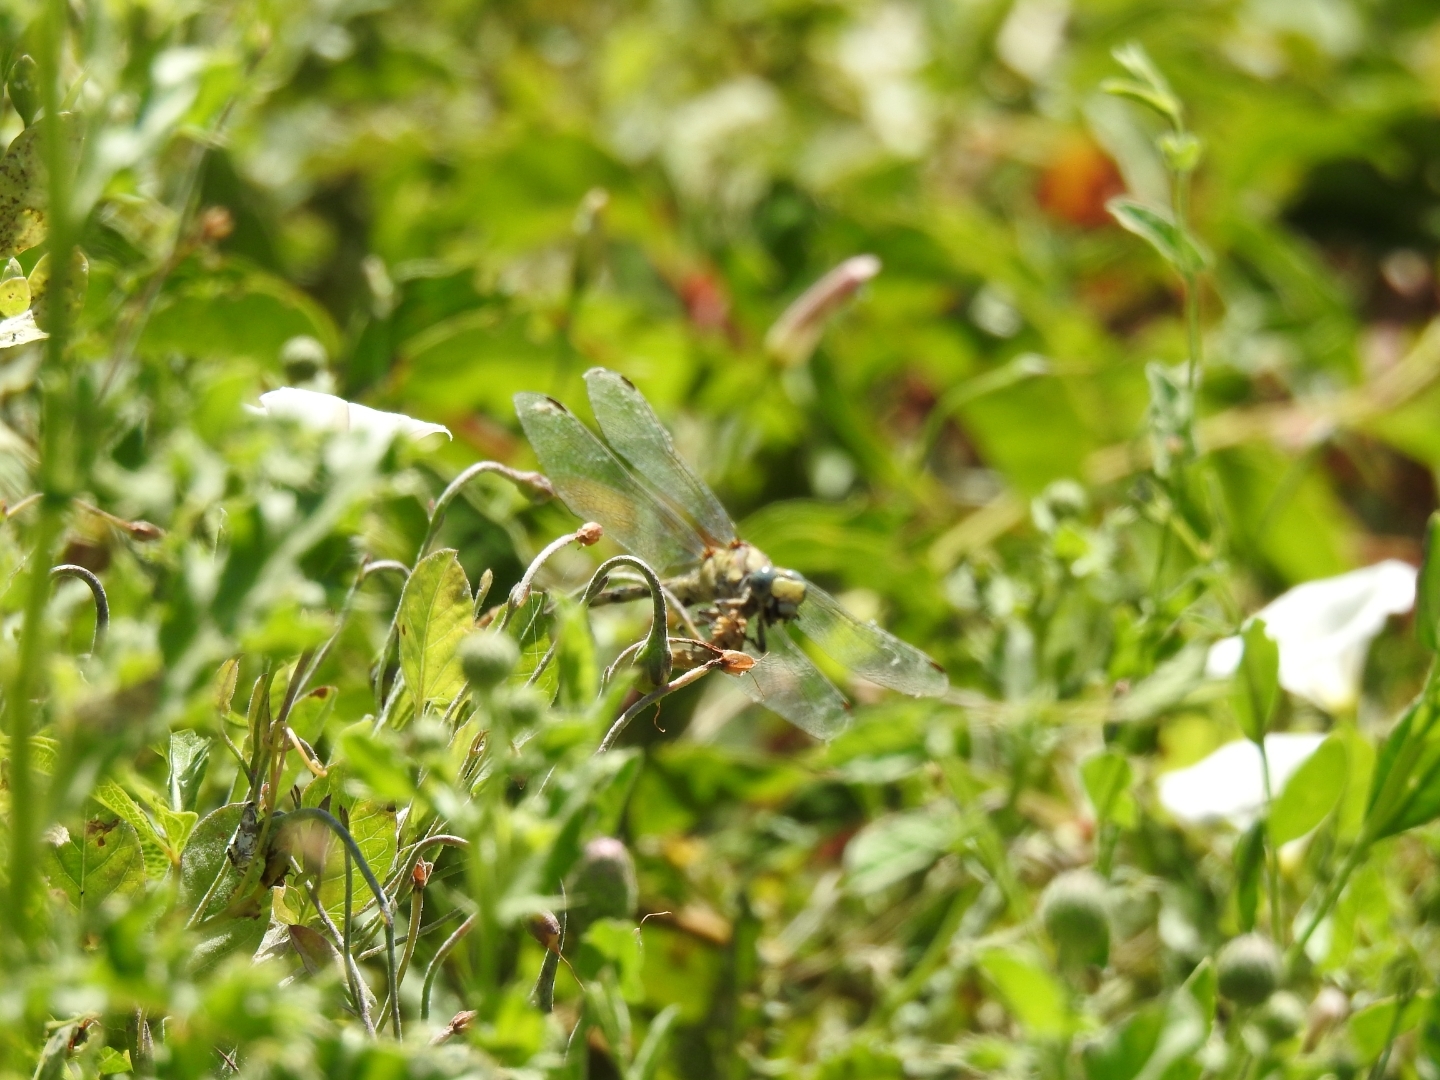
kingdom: Animalia
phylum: Arthropoda
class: Insecta
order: Odonata
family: Gomphidae
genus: Ophiogomphus
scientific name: Ophiogomphus occidentis
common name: Sinuous snaketail
